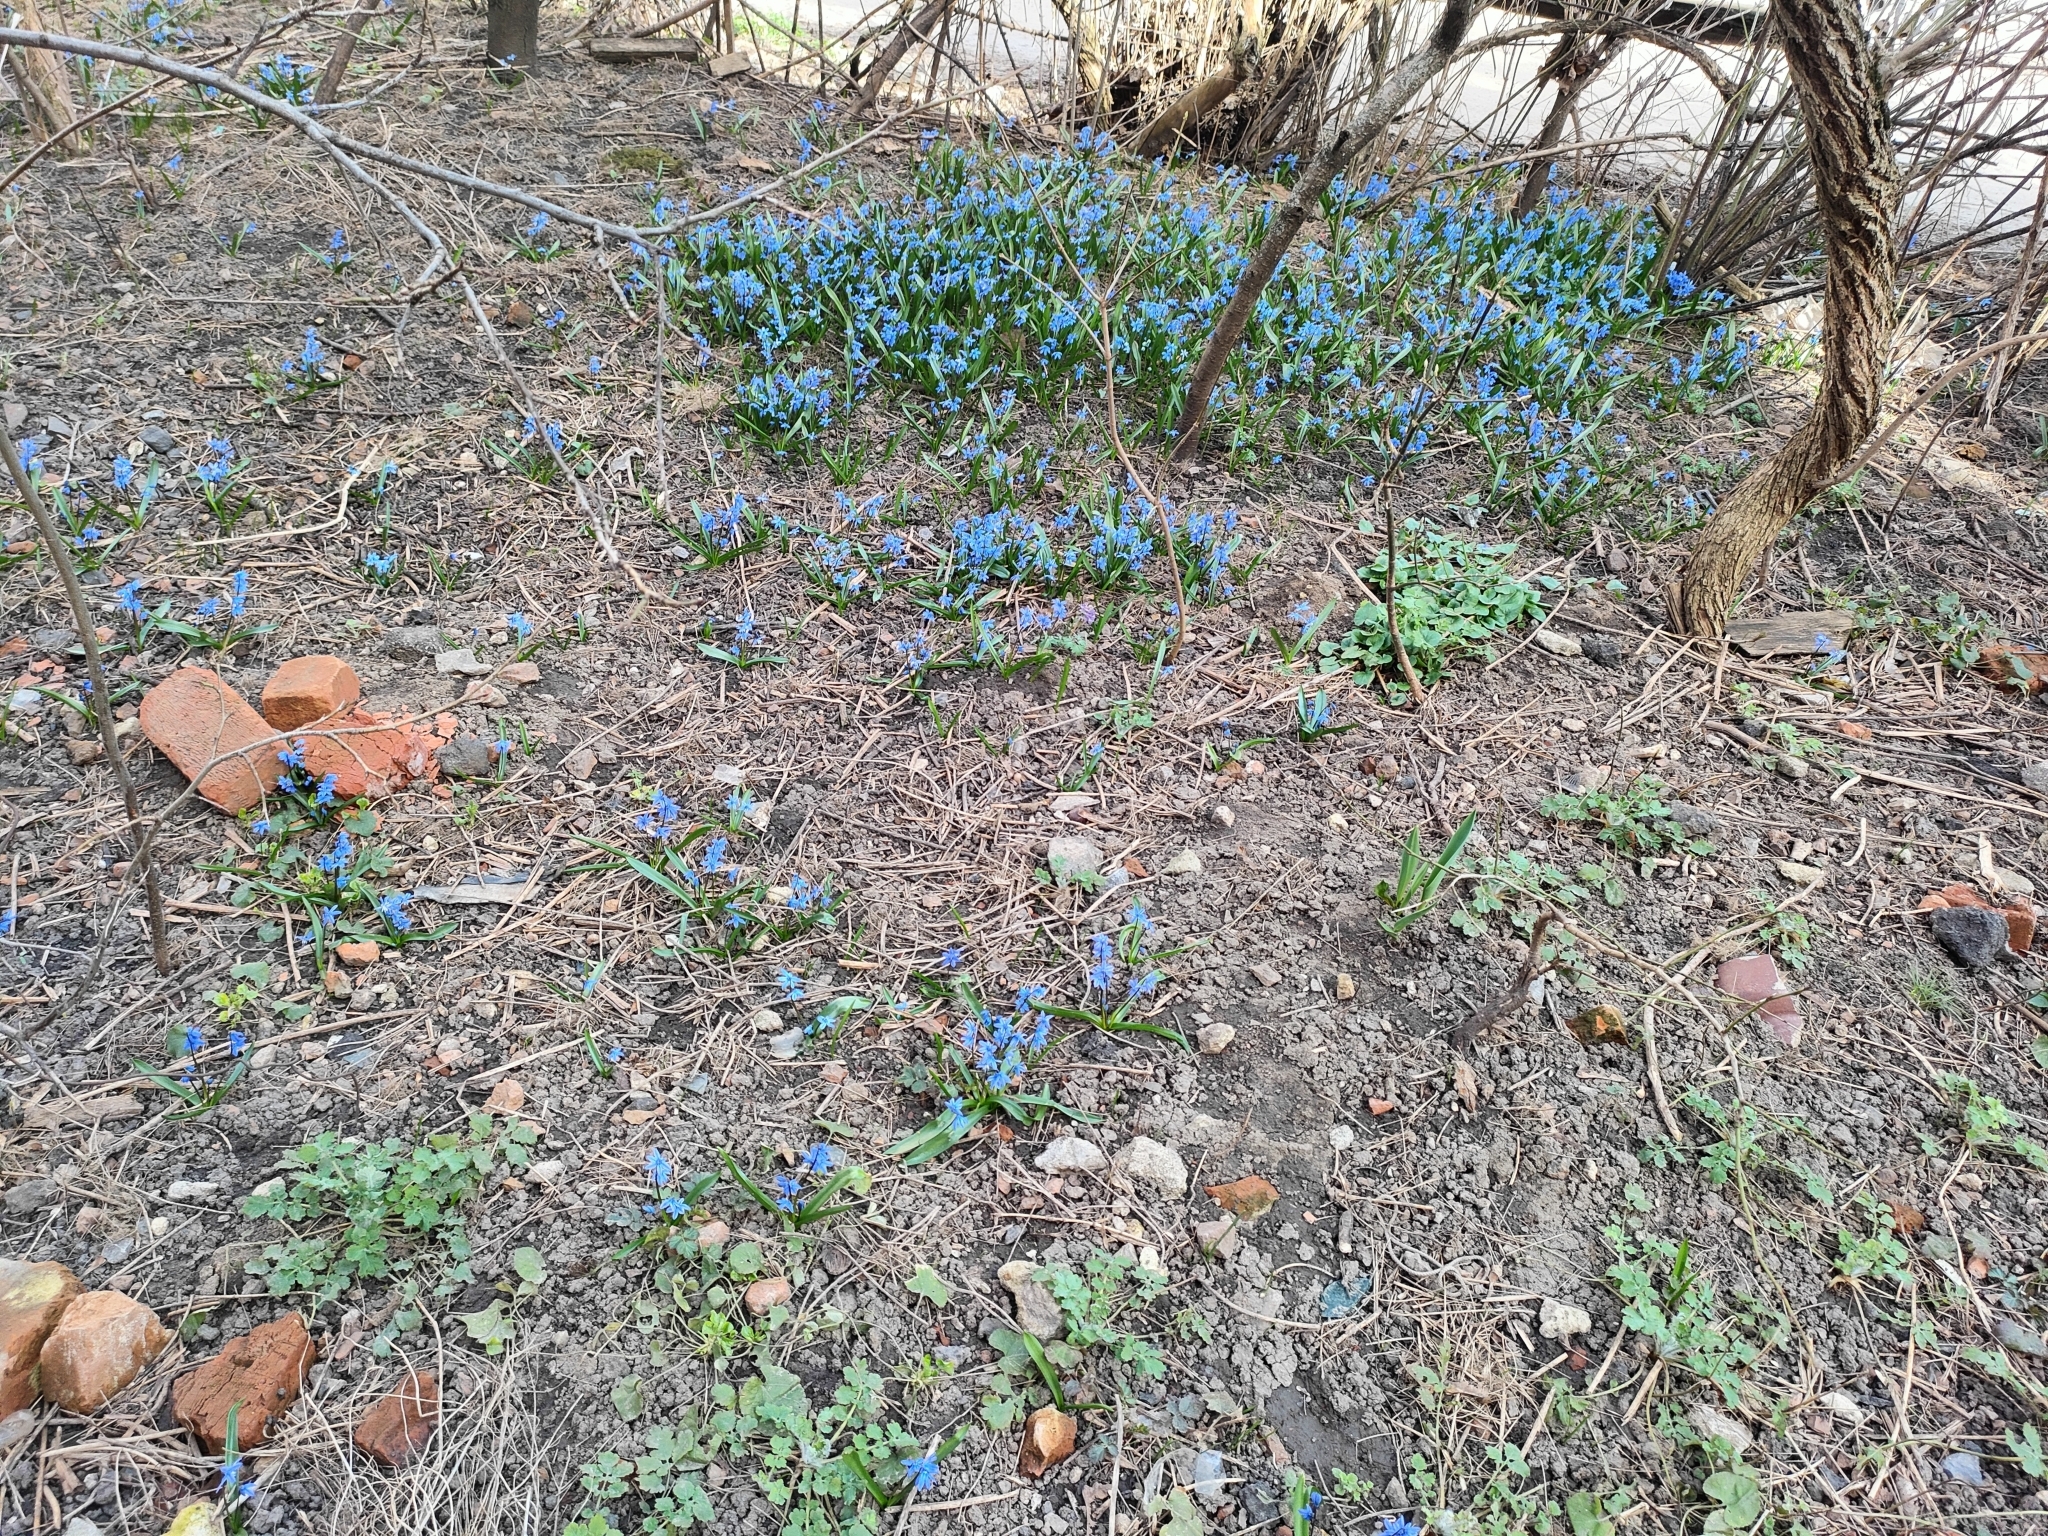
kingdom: Plantae
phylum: Tracheophyta
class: Liliopsida
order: Asparagales
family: Asparagaceae
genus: Scilla
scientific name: Scilla siberica
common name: Siberian squill
